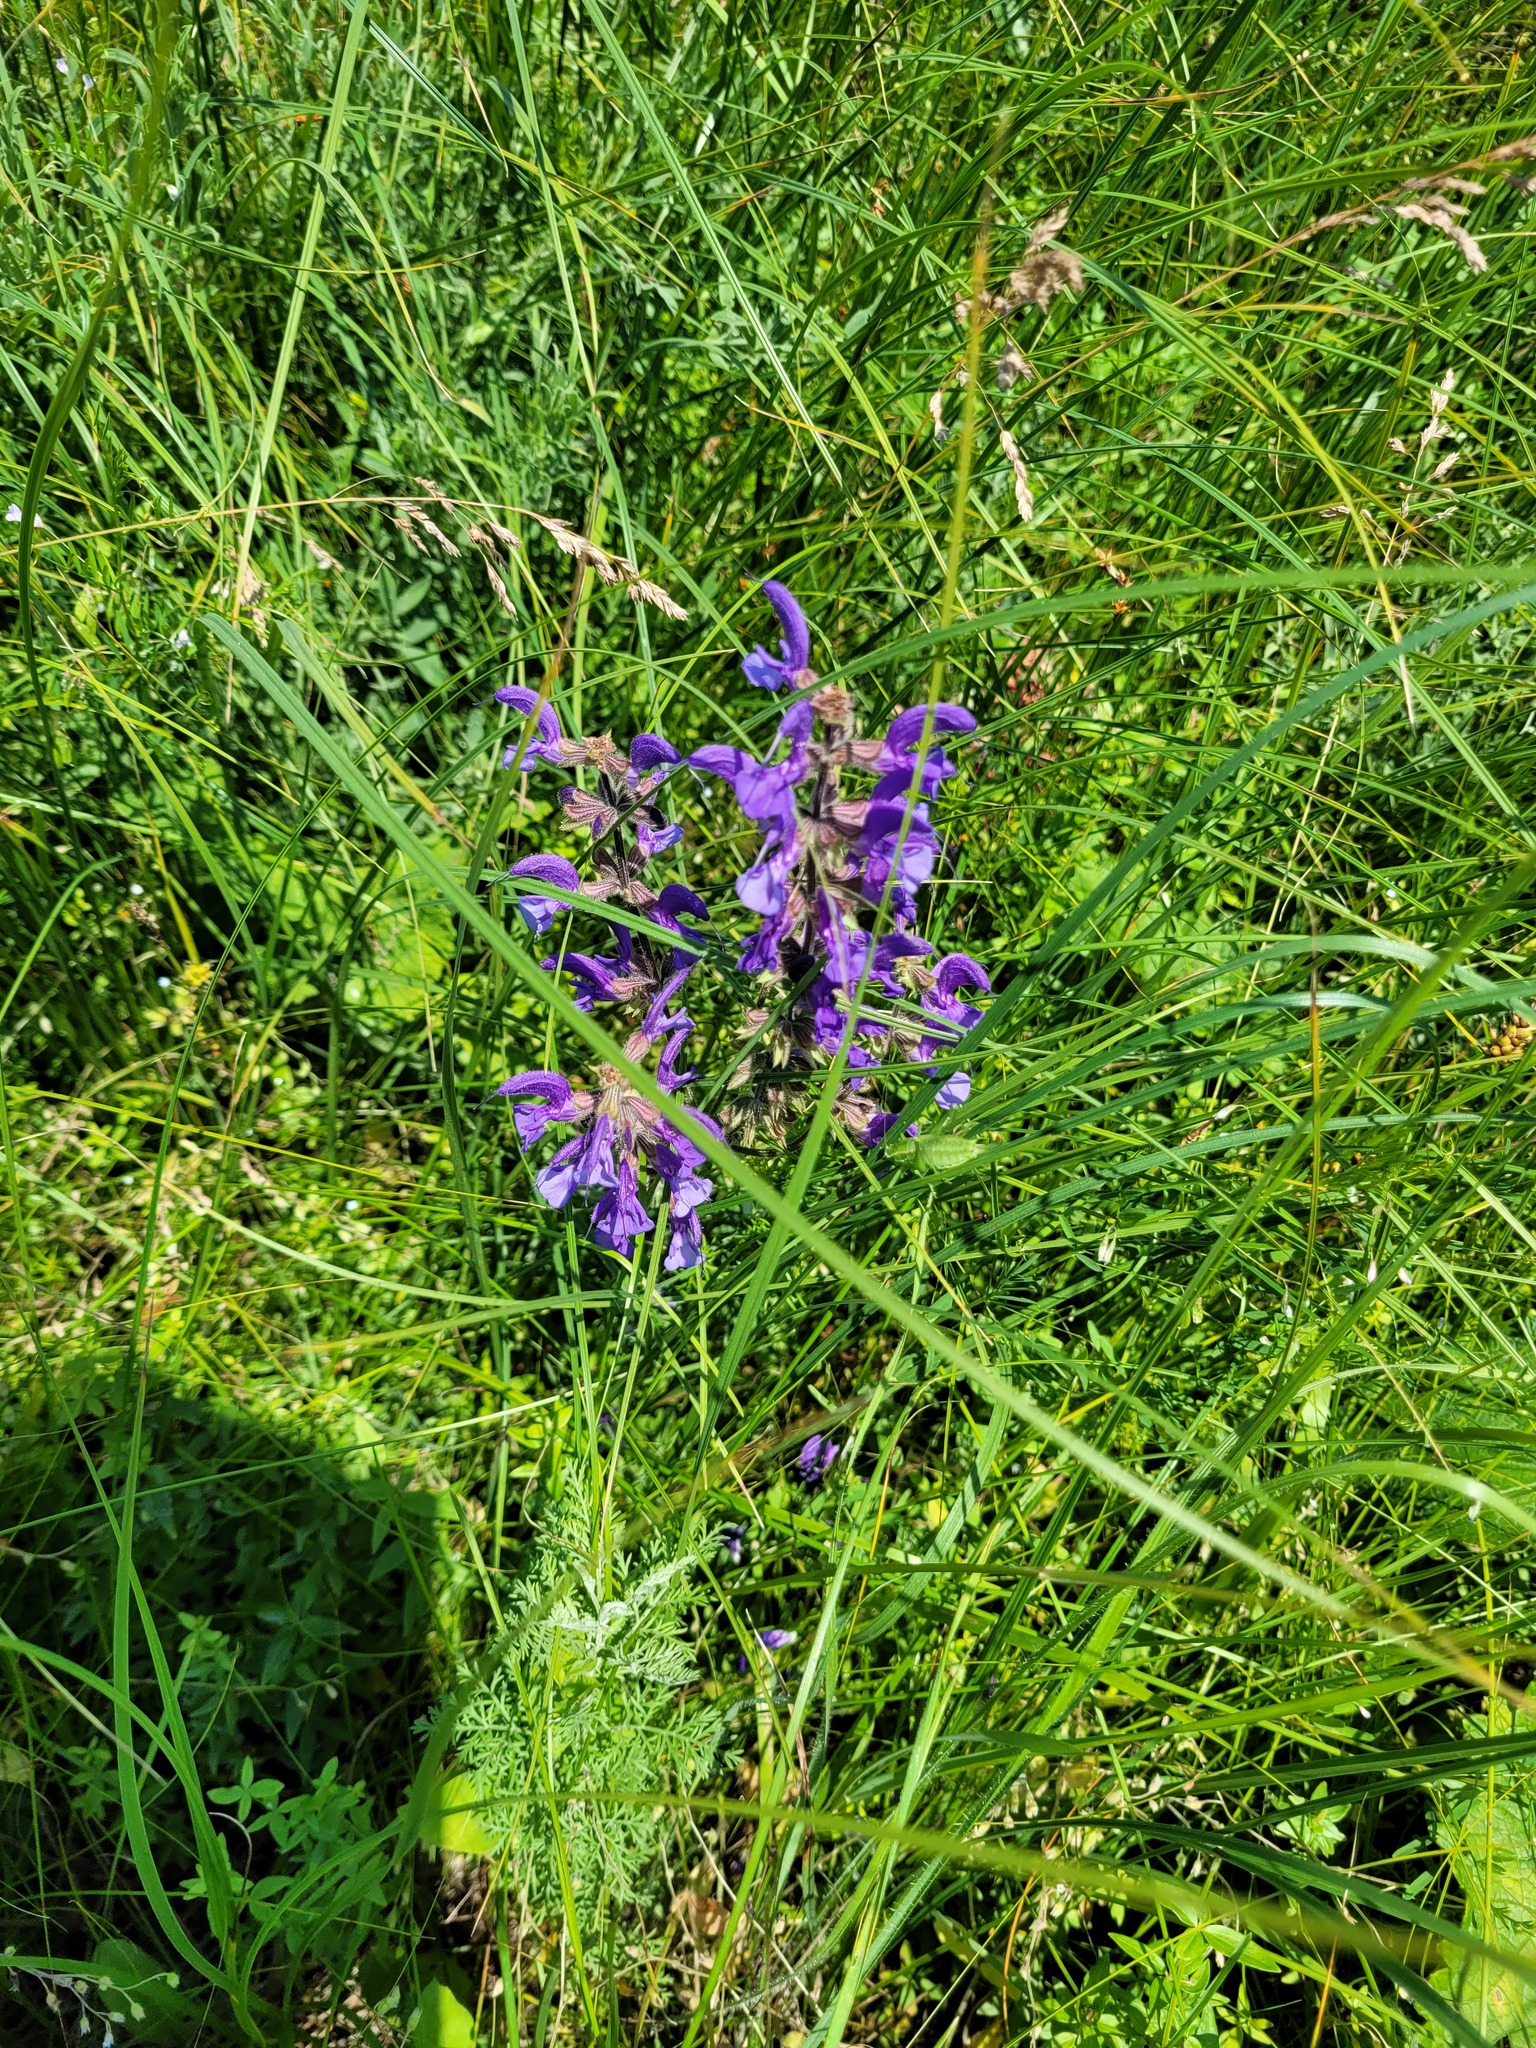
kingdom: Plantae
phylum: Tracheophyta
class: Magnoliopsida
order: Lamiales
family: Lamiaceae
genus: Salvia
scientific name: Salvia pratensis
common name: Meadow sage
